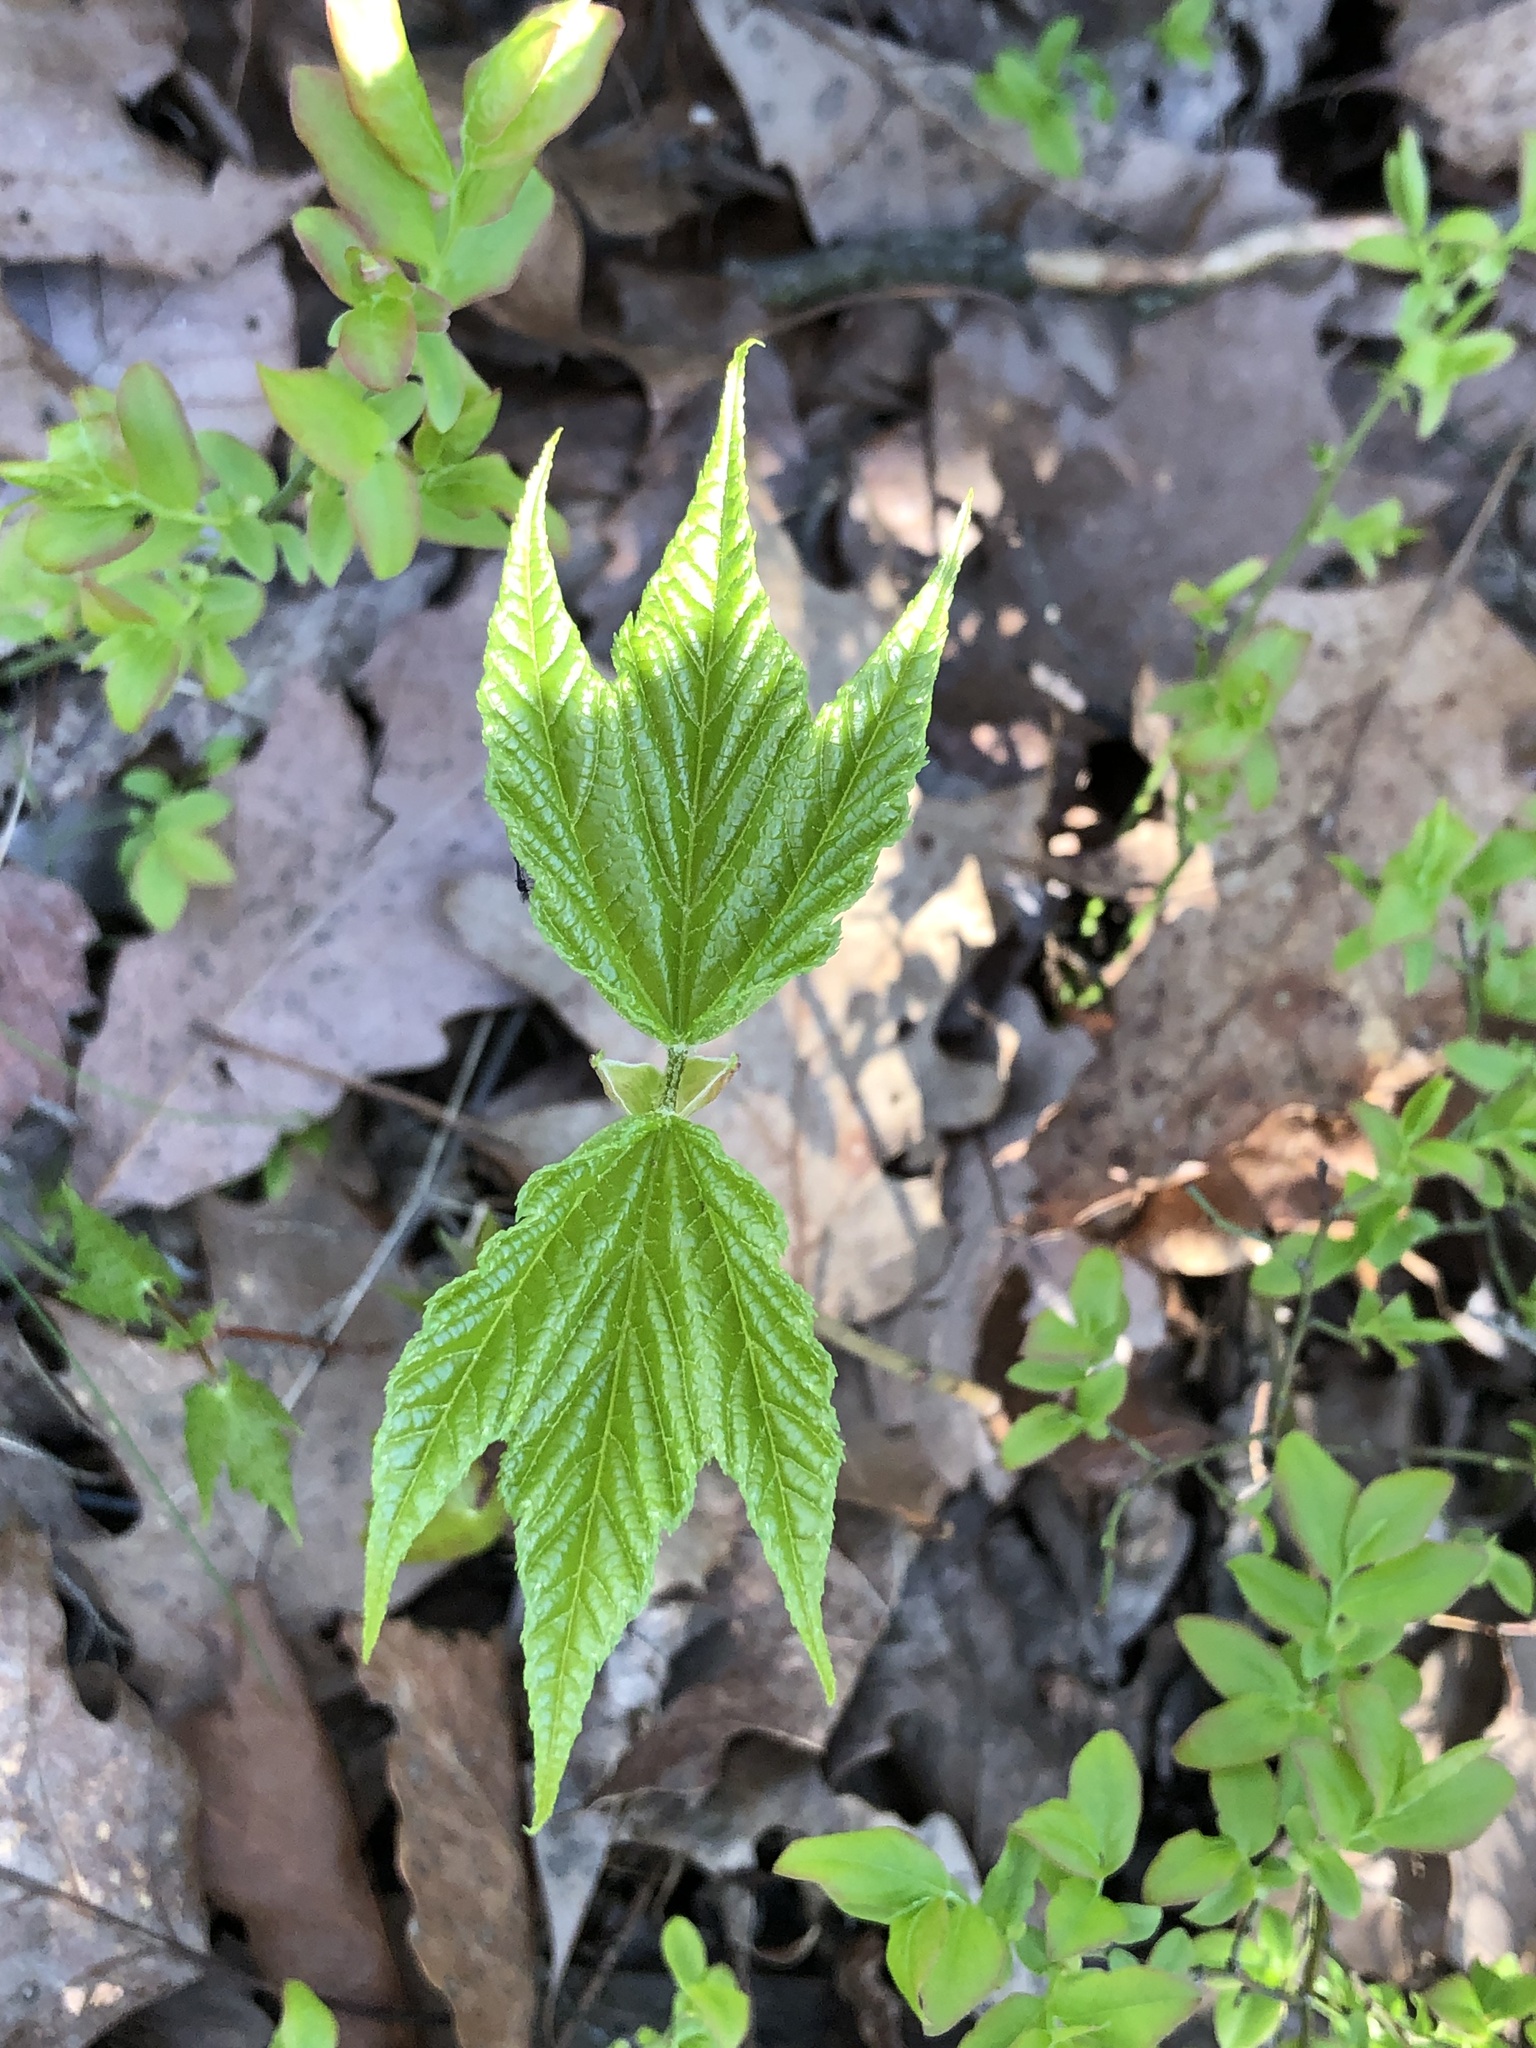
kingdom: Plantae
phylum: Tracheophyta
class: Magnoliopsida
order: Sapindales
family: Sapindaceae
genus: Acer
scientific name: Acer pensylvanicum
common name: Moosewood
